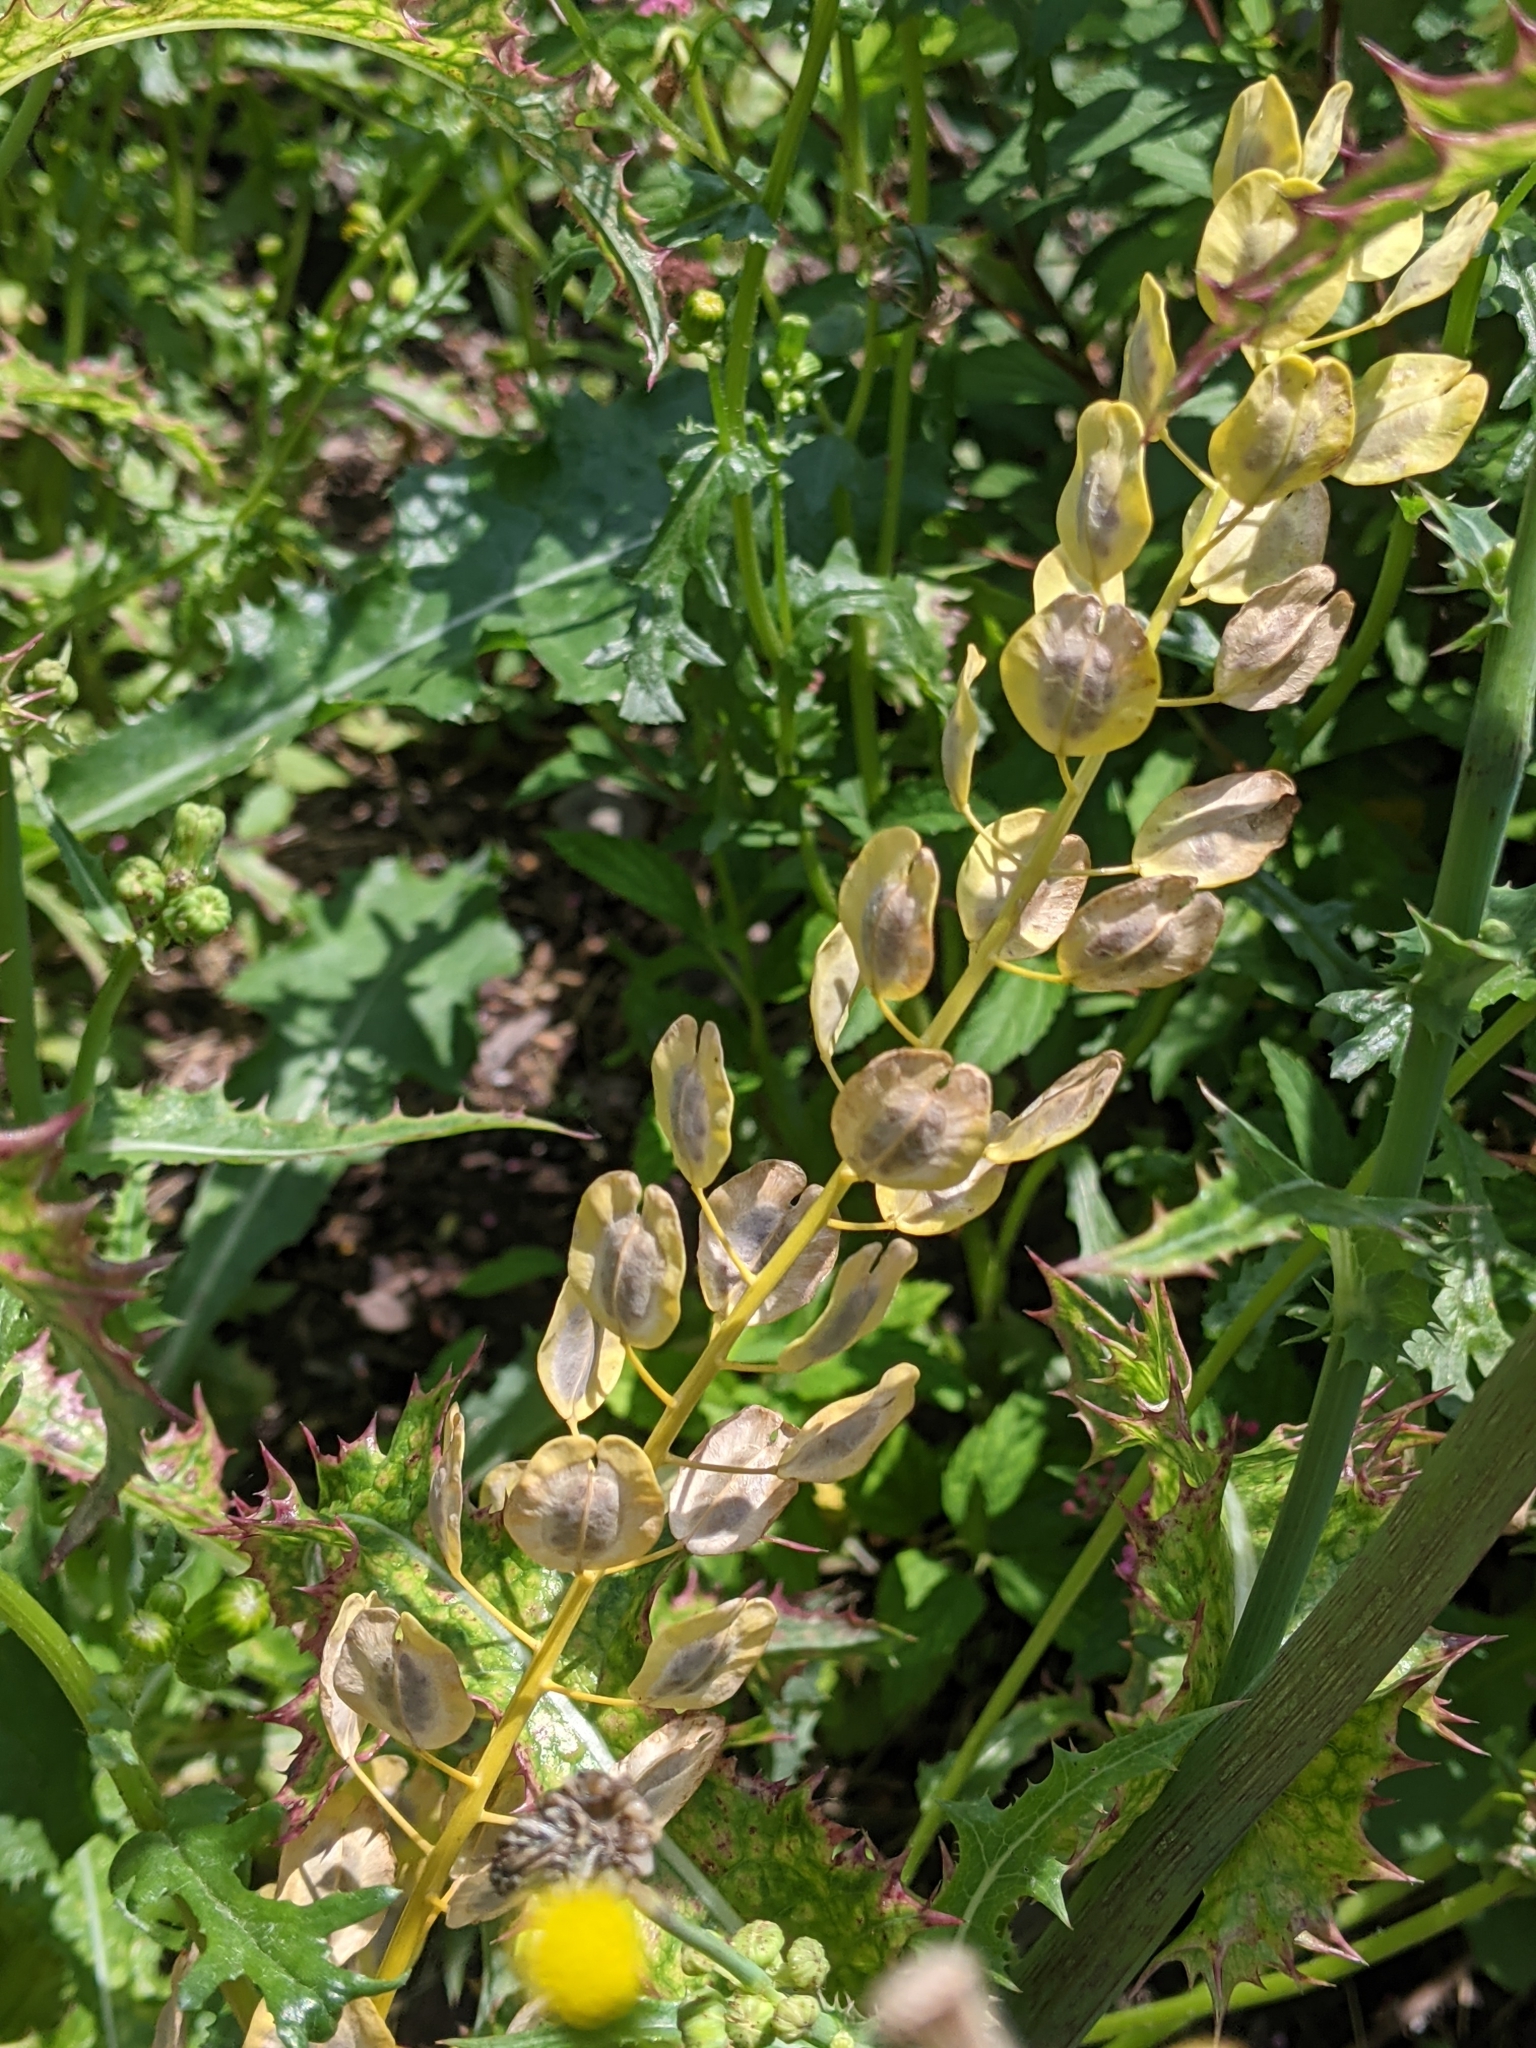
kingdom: Plantae
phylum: Tracheophyta
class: Magnoliopsida
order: Brassicales
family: Brassicaceae
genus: Thlaspi
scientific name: Thlaspi arvense
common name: Field pennycress
